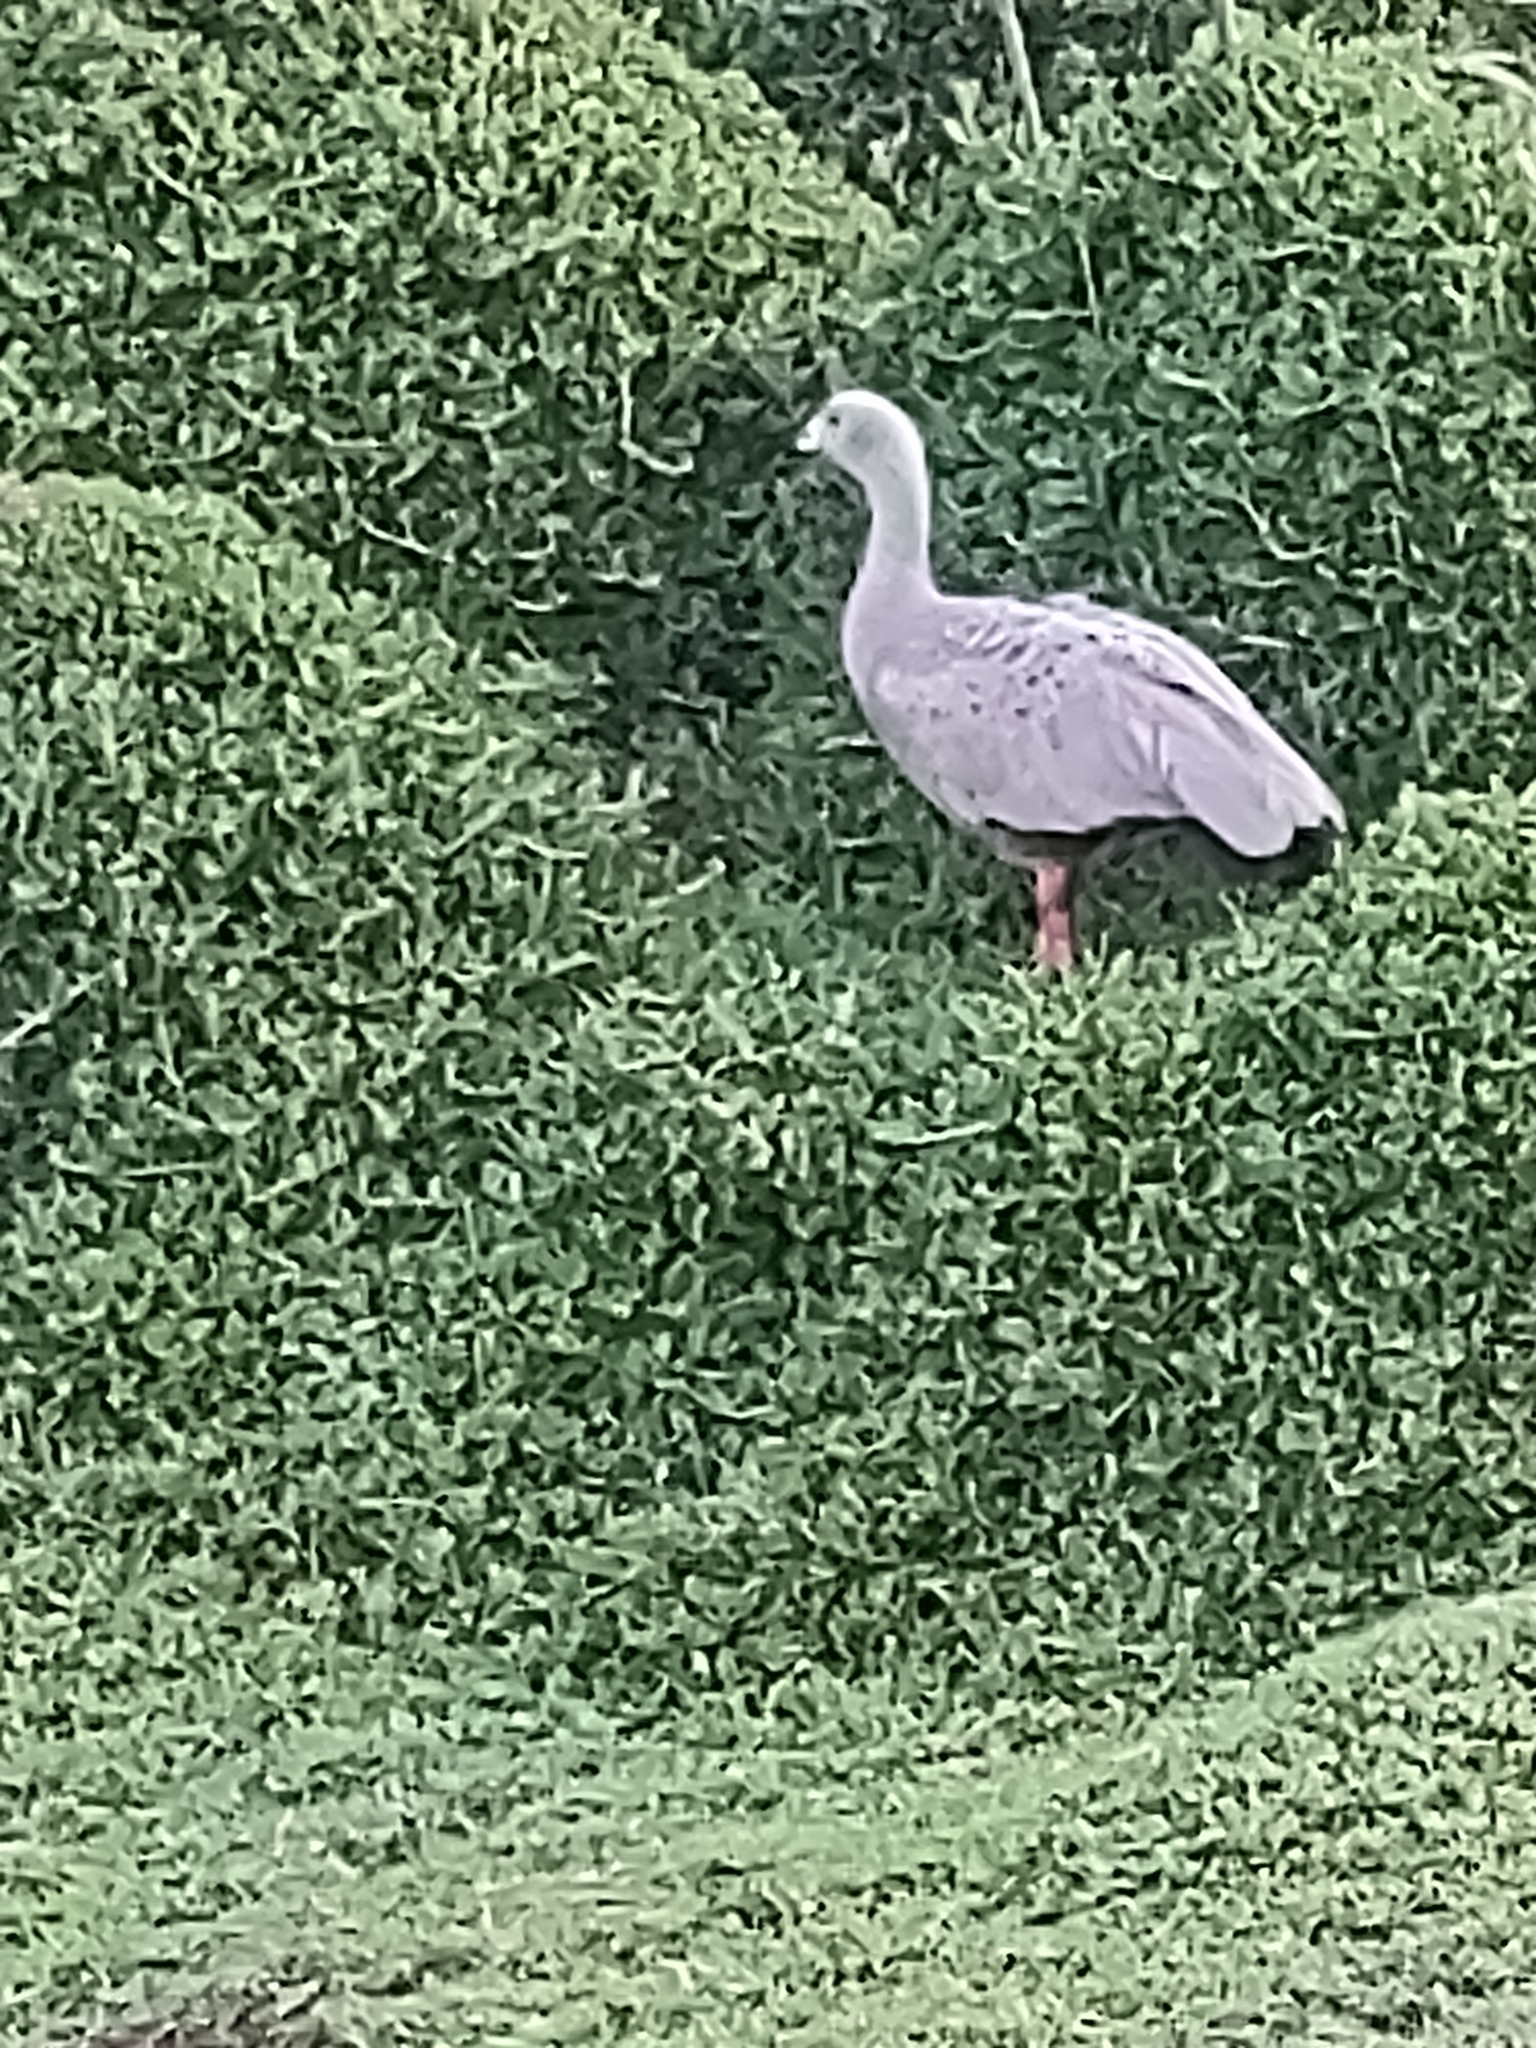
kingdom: Animalia
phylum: Chordata
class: Aves
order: Anseriformes
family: Anatidae
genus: Cereopsis
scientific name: Cereopsis novaehollandiae
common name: Cape barren goose
